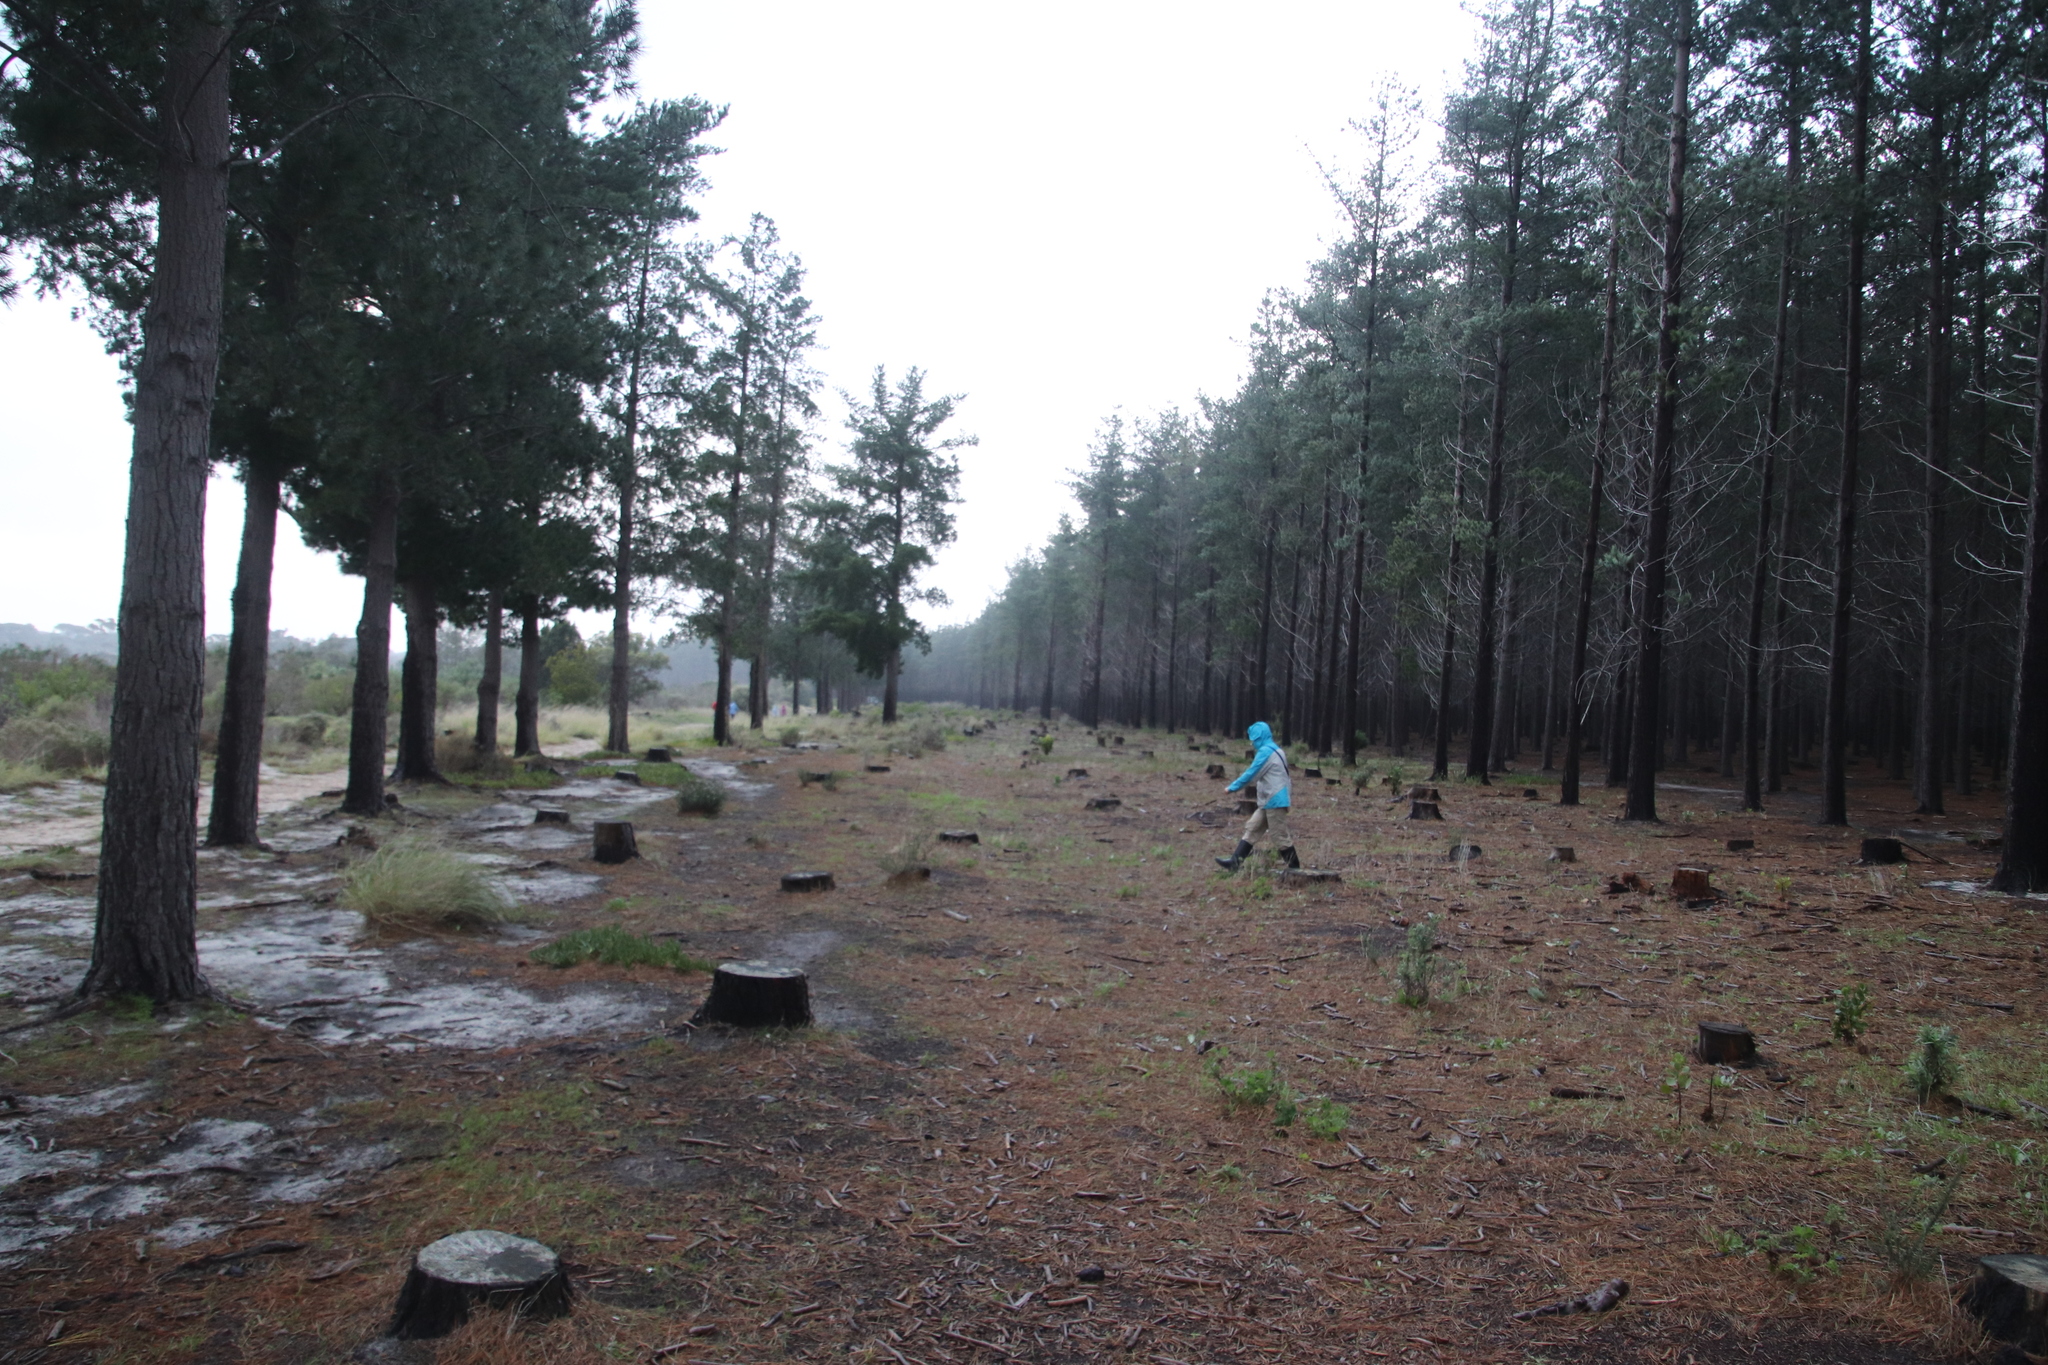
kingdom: Plantae
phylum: Tracheophyta
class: Pinopsida
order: Pinales
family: Pinaceae
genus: Pinus
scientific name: Pinus radiata
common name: Monterey pine
